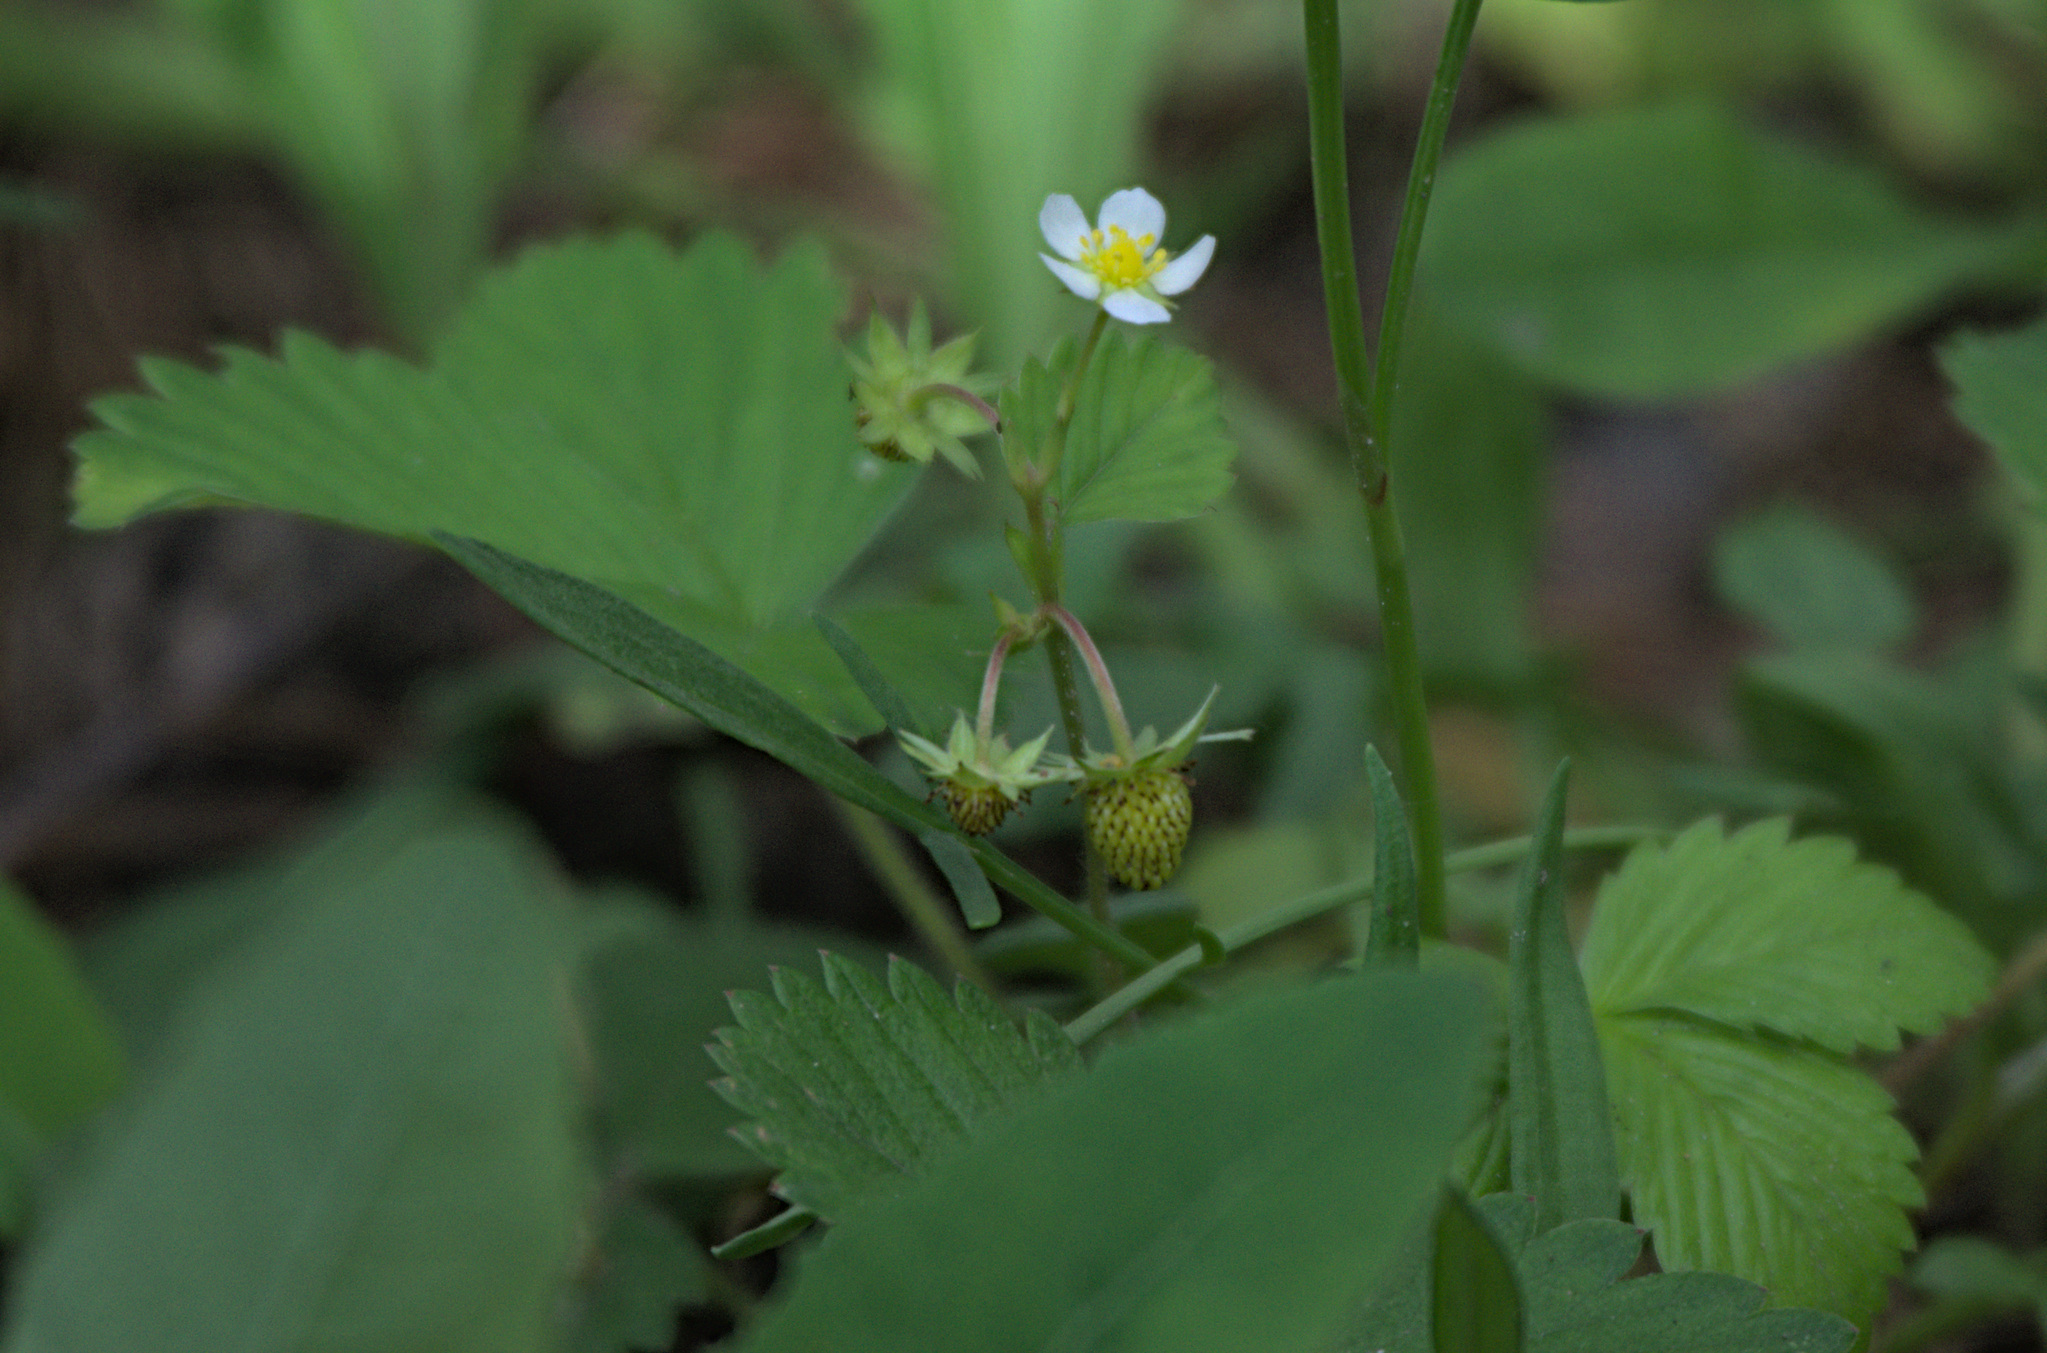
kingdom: Plantae
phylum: Tracheophyta
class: Magnoliopsida
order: Rosales
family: Rosaceae
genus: Fragaria
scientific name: Fragaria vesca
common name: Wild strawberry
